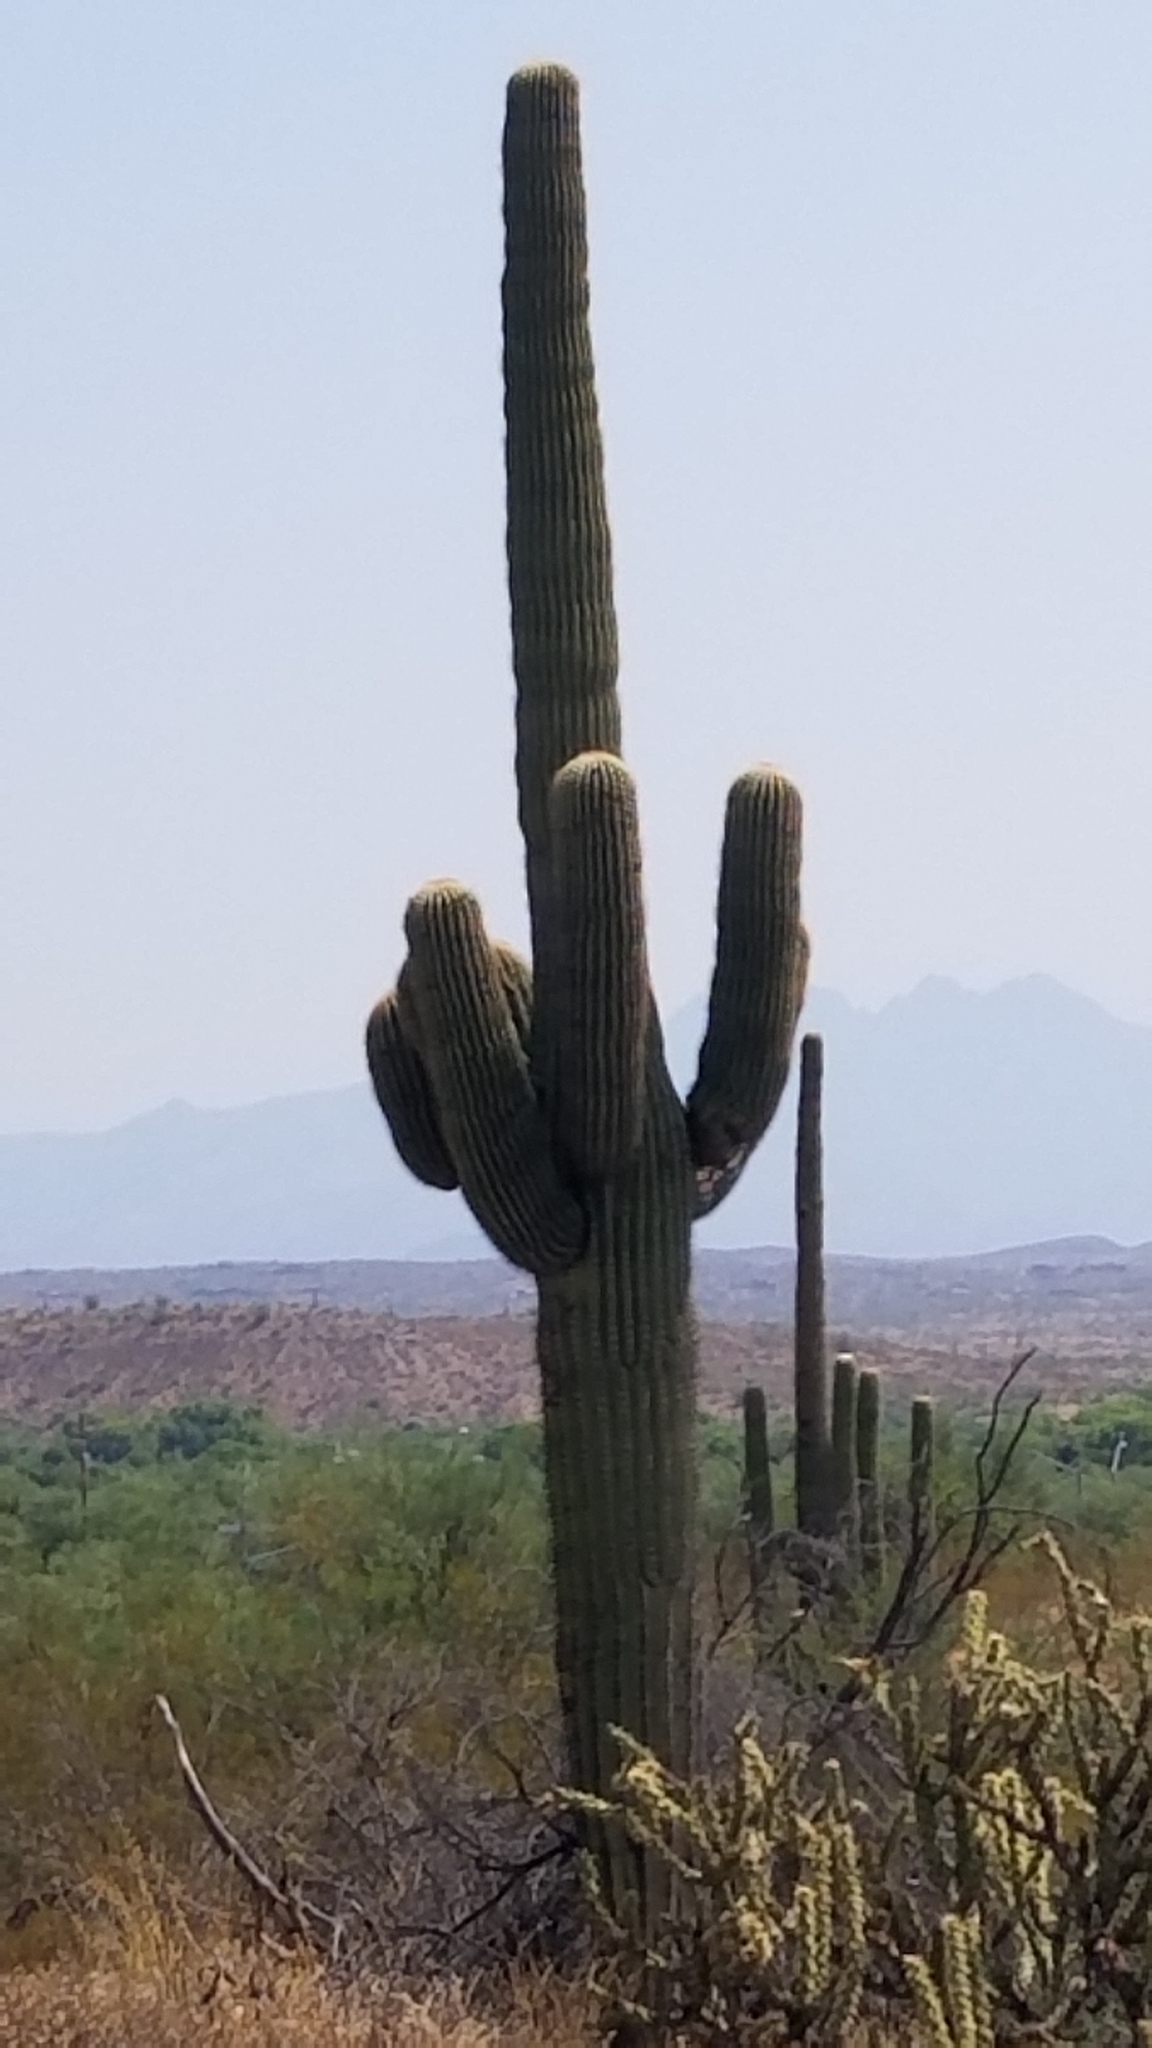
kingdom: Plantae
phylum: Tracheophyta
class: Magnoliopsida
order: Caryophyllales
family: Cactaceae
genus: Carnegiea
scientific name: Carnegiea gigantea
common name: Saguaro
